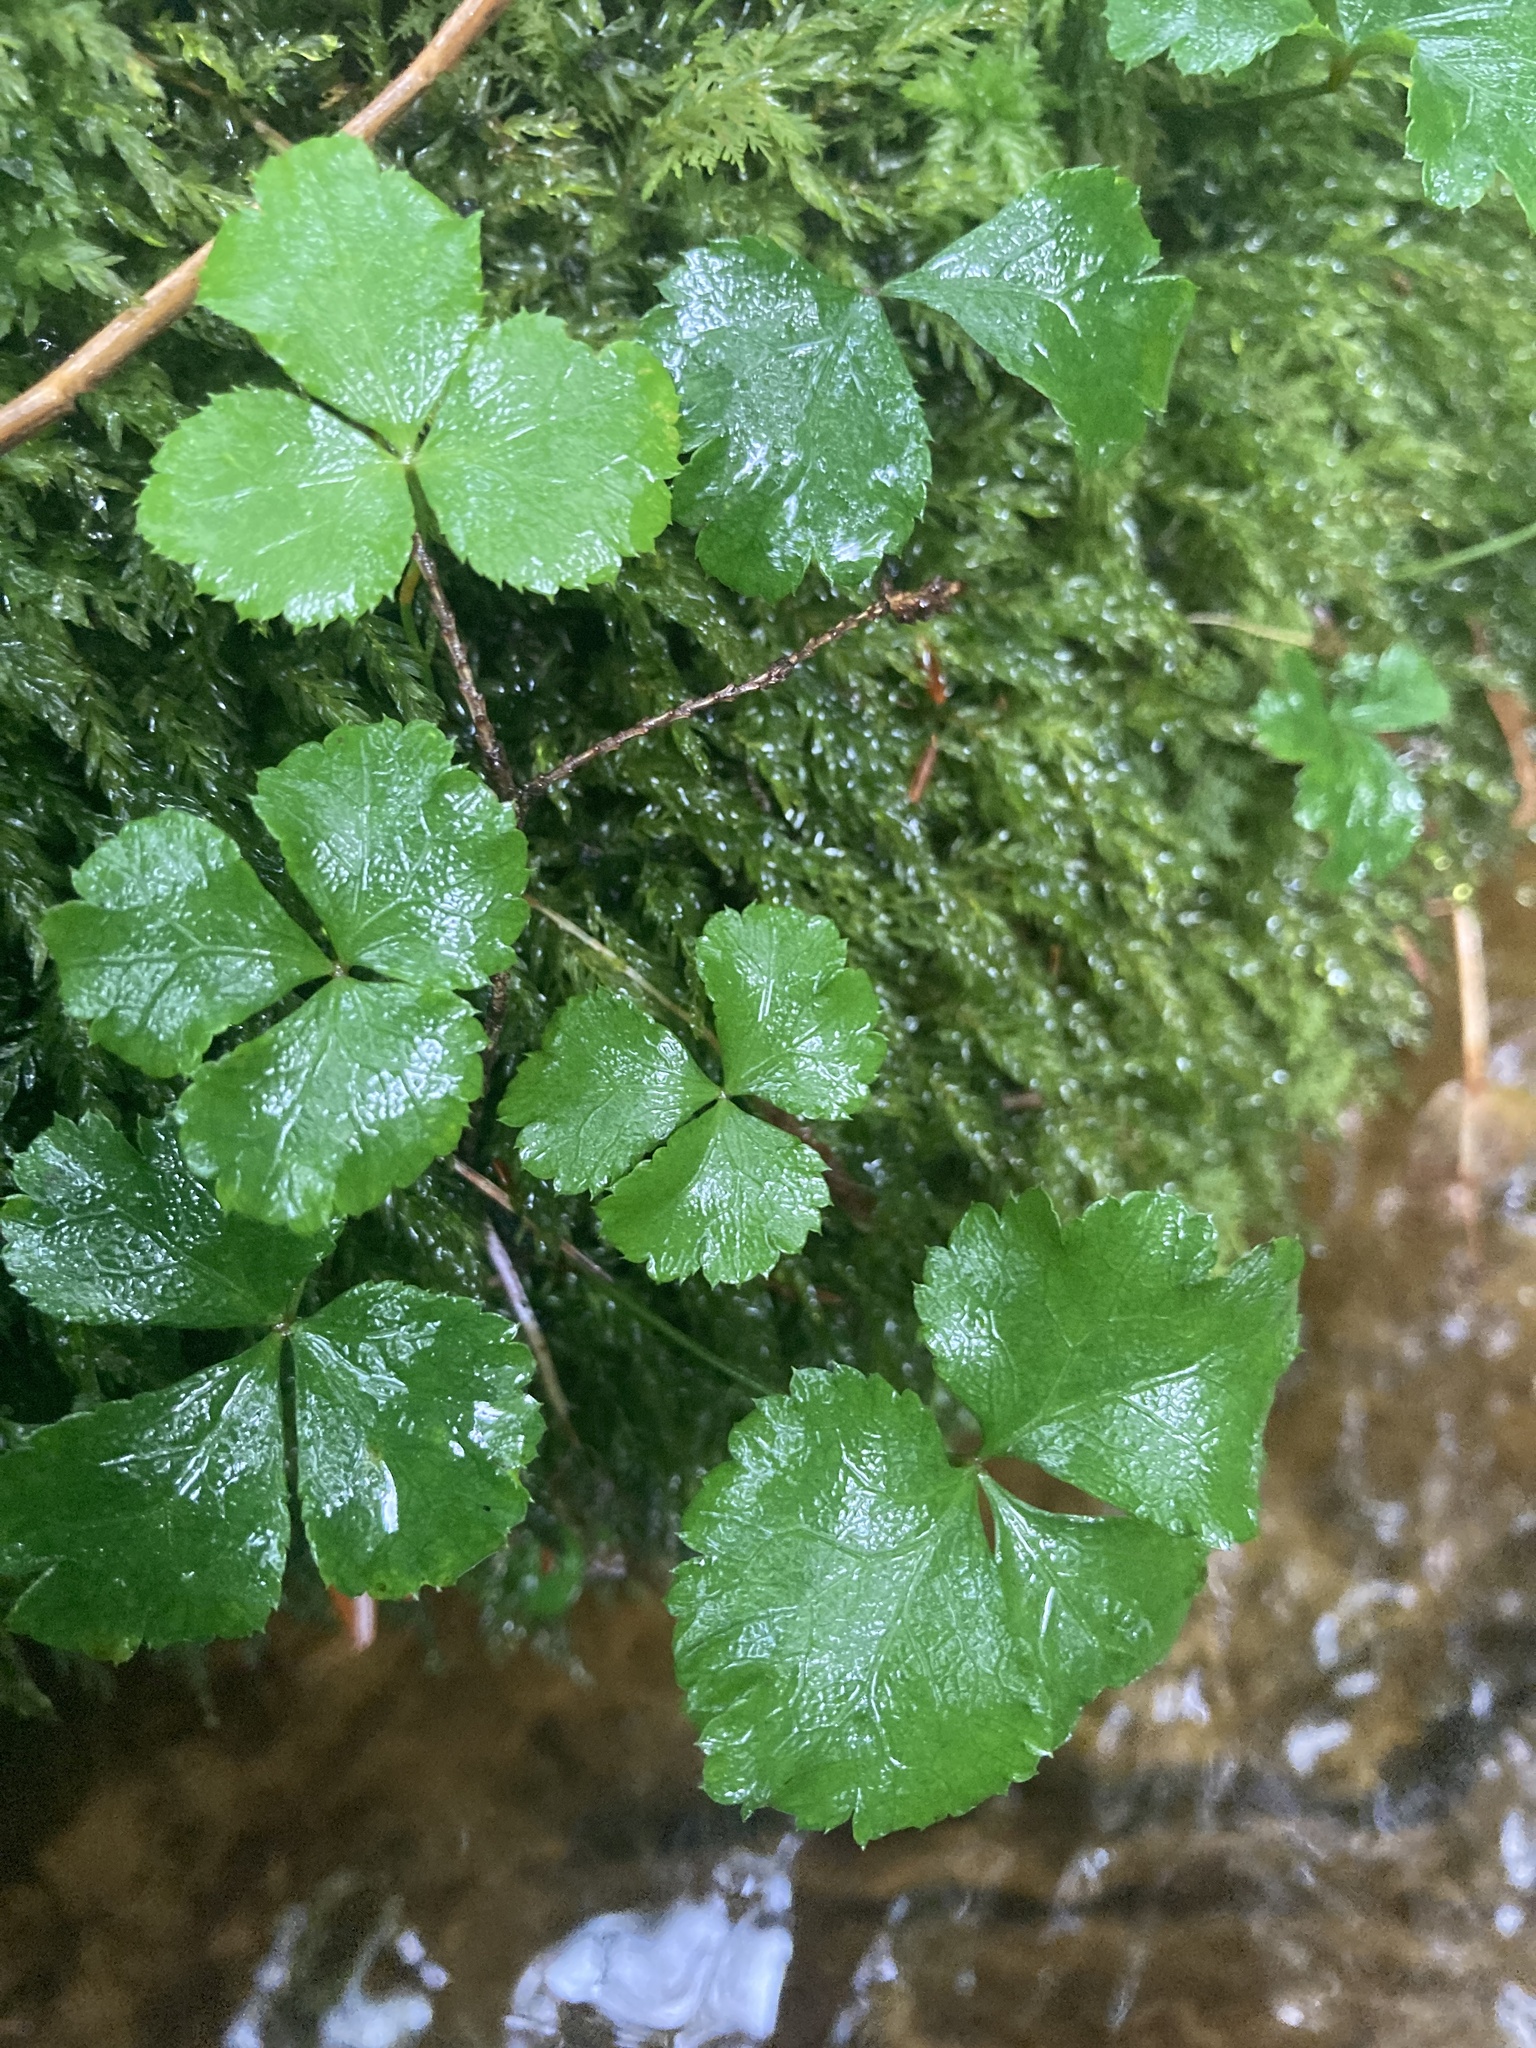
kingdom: Plantae
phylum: Tracheophyta
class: Magnoliopsida
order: Ranunculales
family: Ranunculaceae
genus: Coptis
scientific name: Coptis trifolia
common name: Canker-root
